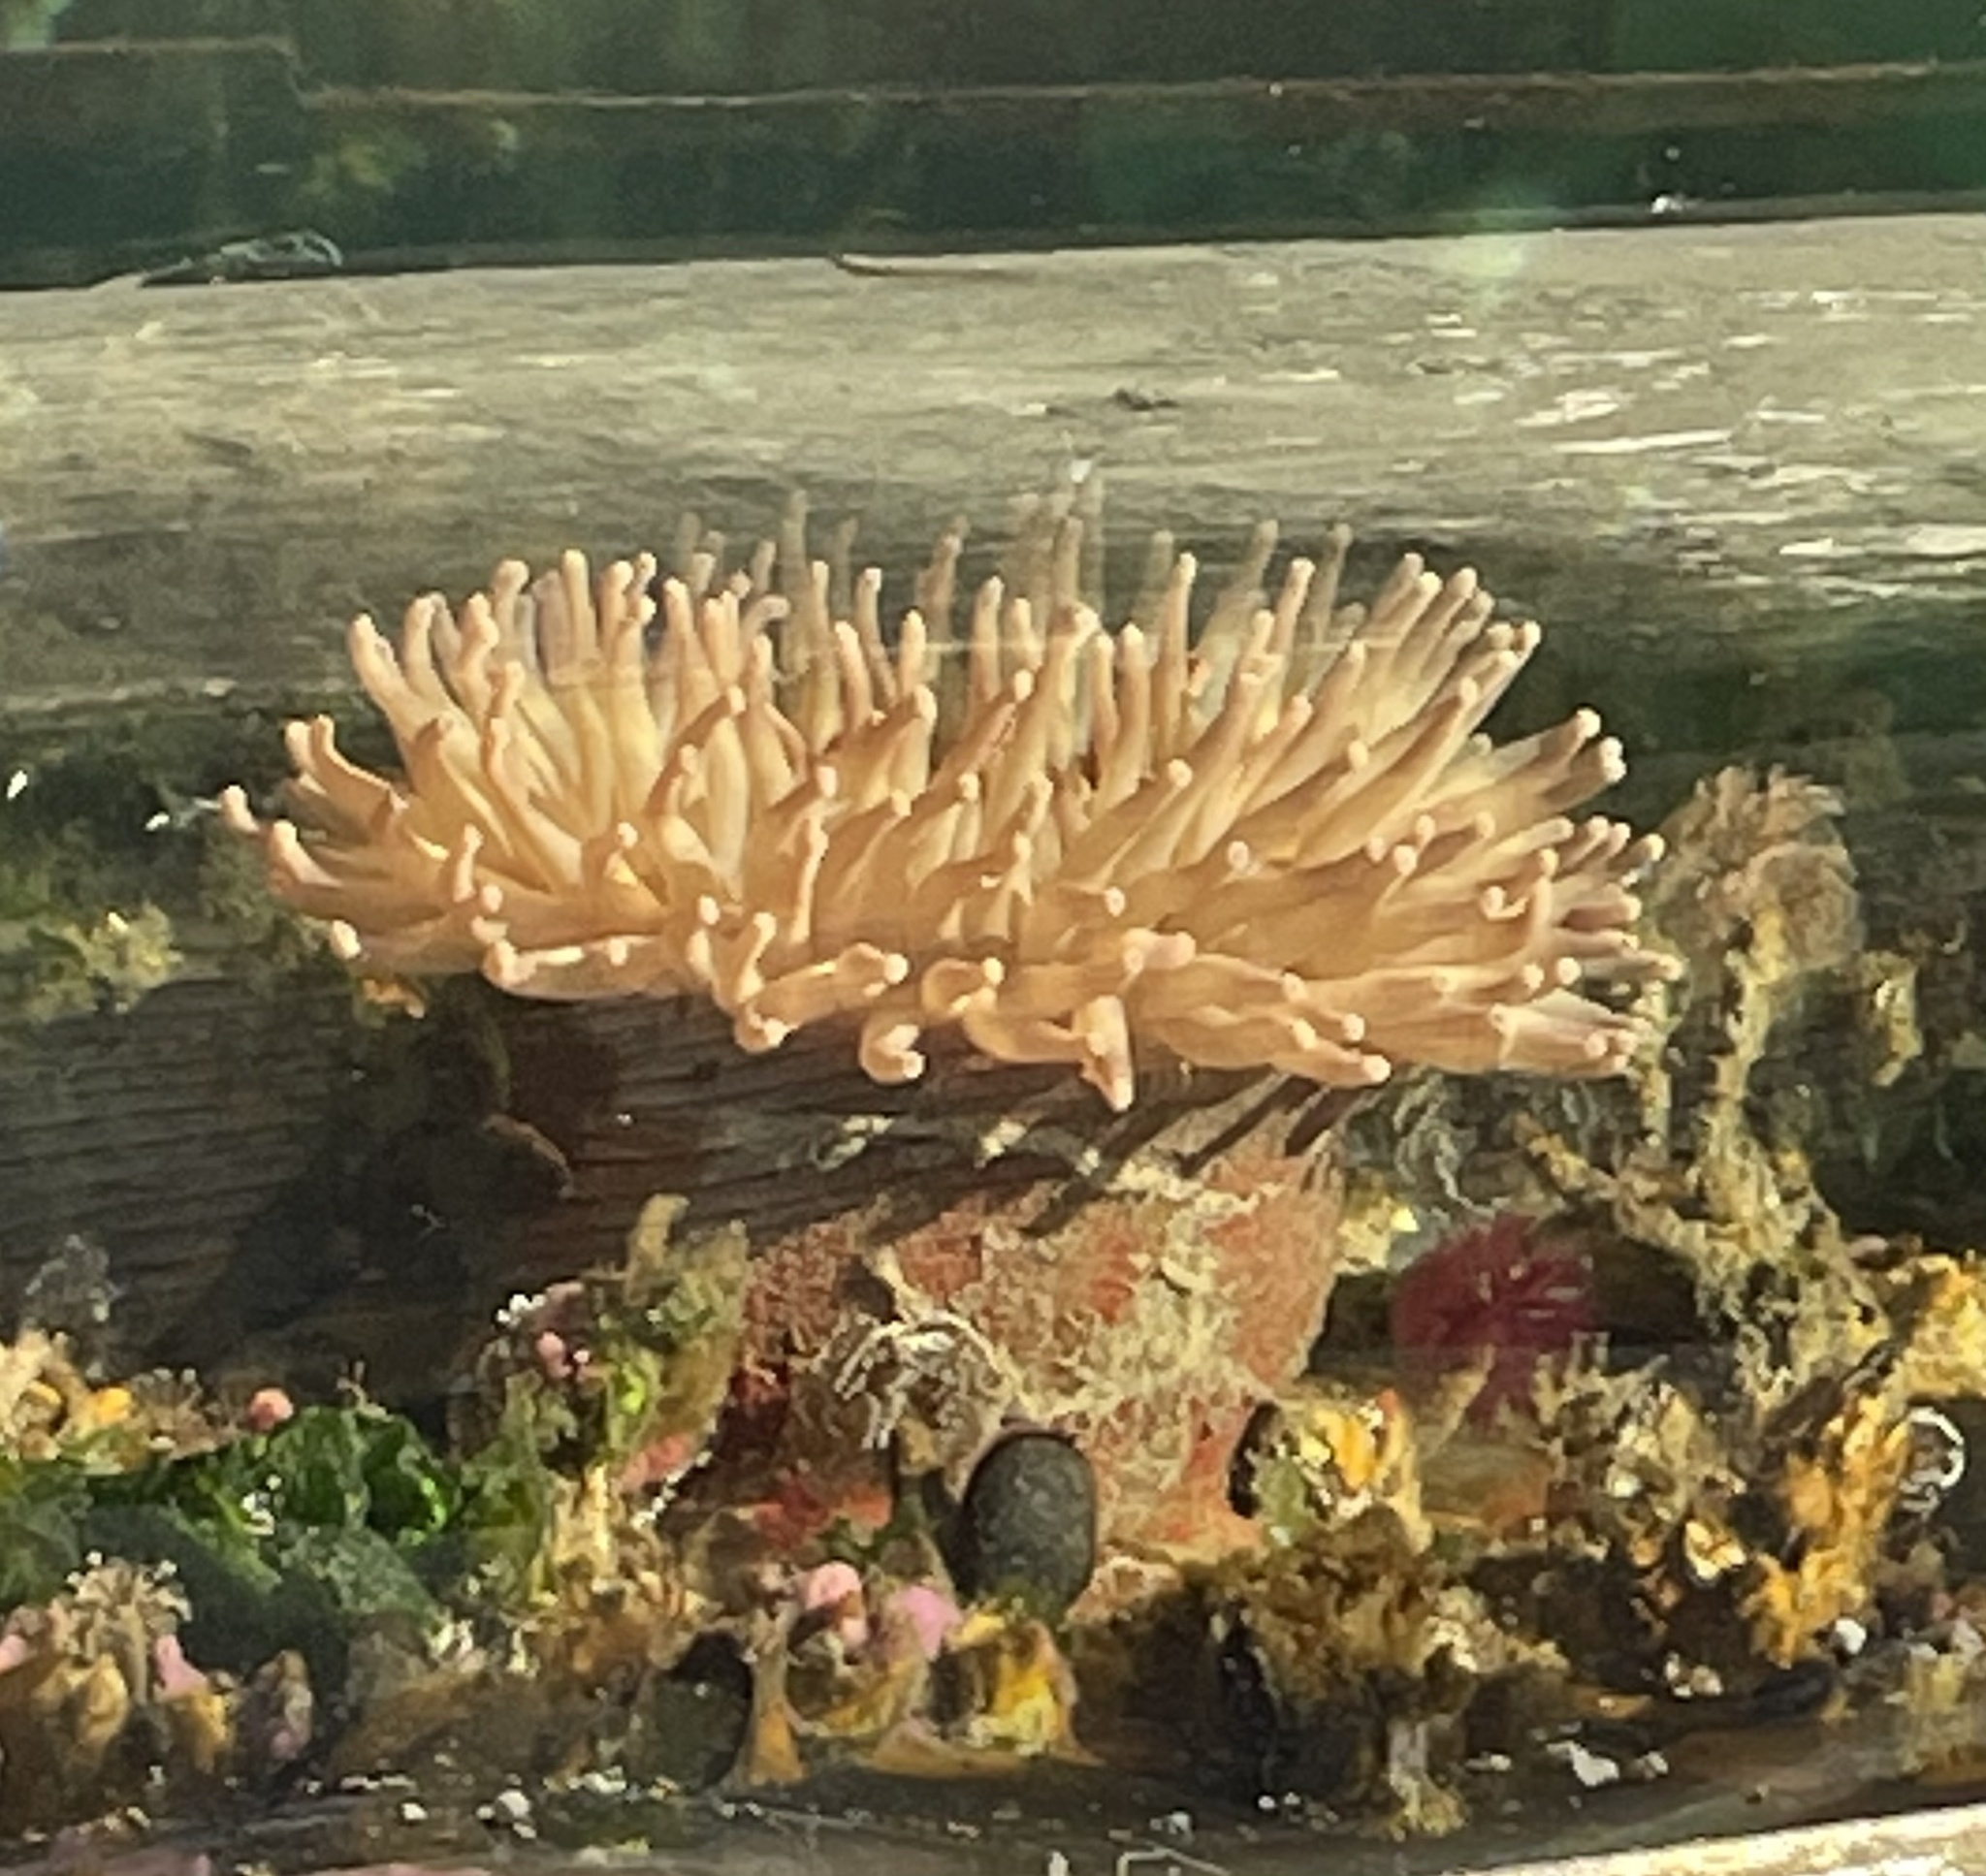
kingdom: Animalia
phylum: Cnidaria
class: Anthozoa
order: Actiniaria
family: Actiniidae
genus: Urticina
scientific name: Urticina grebelnyi
